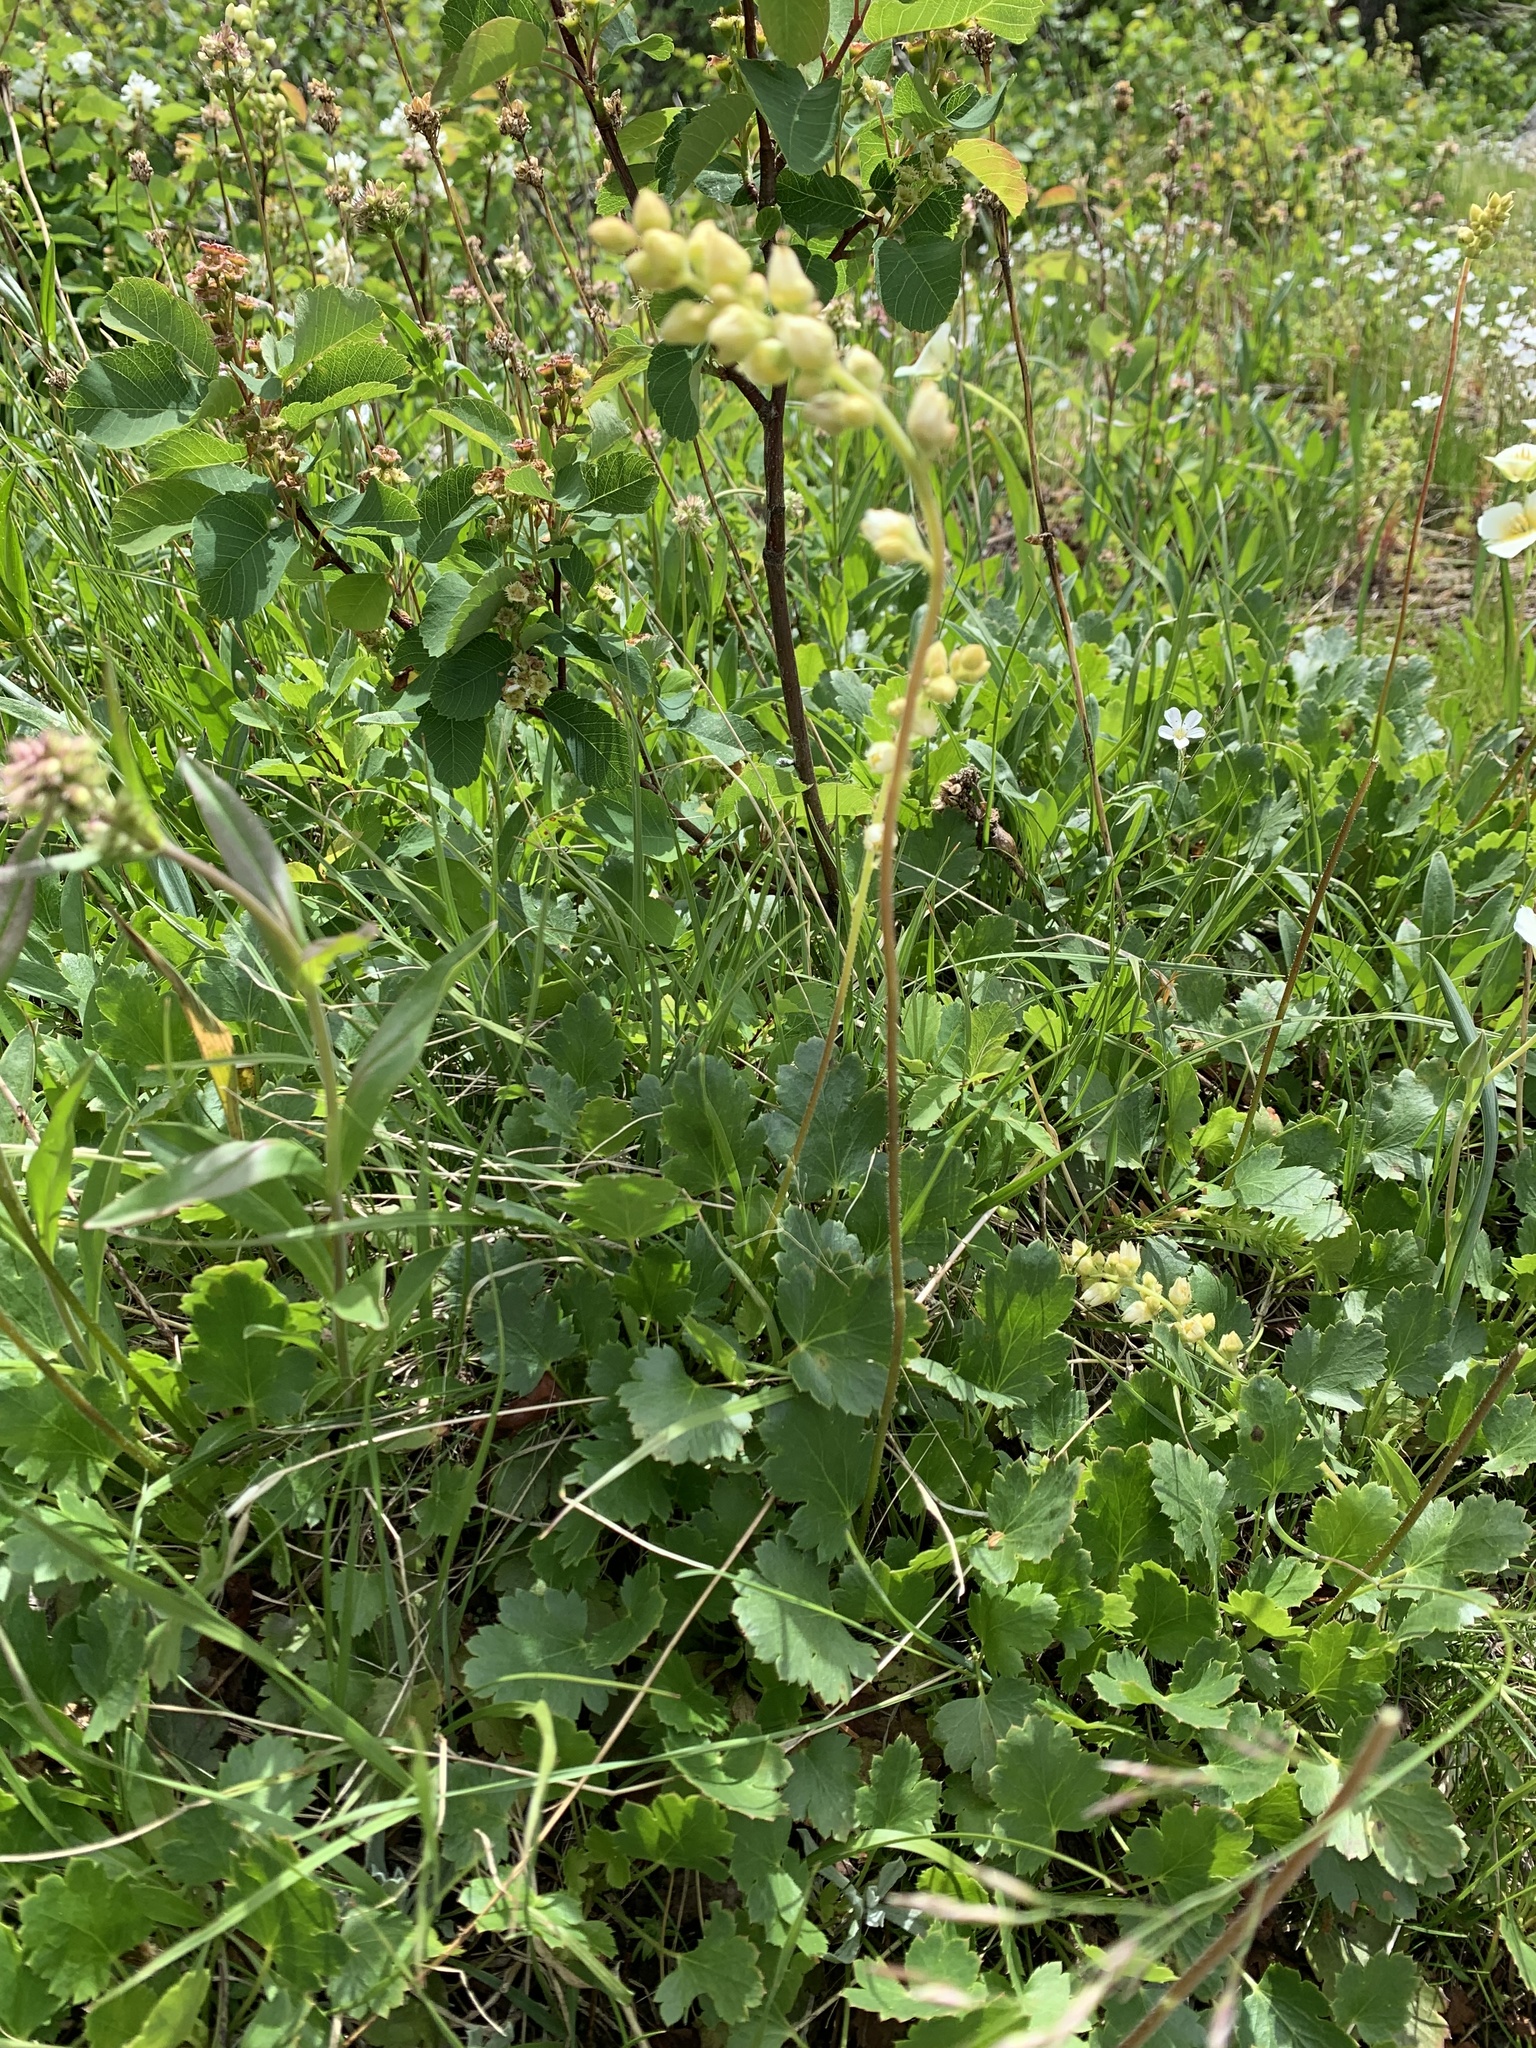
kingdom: Plantae
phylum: Tracheophyta
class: Magnoliopsida
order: Saxifragales
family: Saxifragaceae
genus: Heuchera
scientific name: Heuchera cylindrica
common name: Mat alumroot
